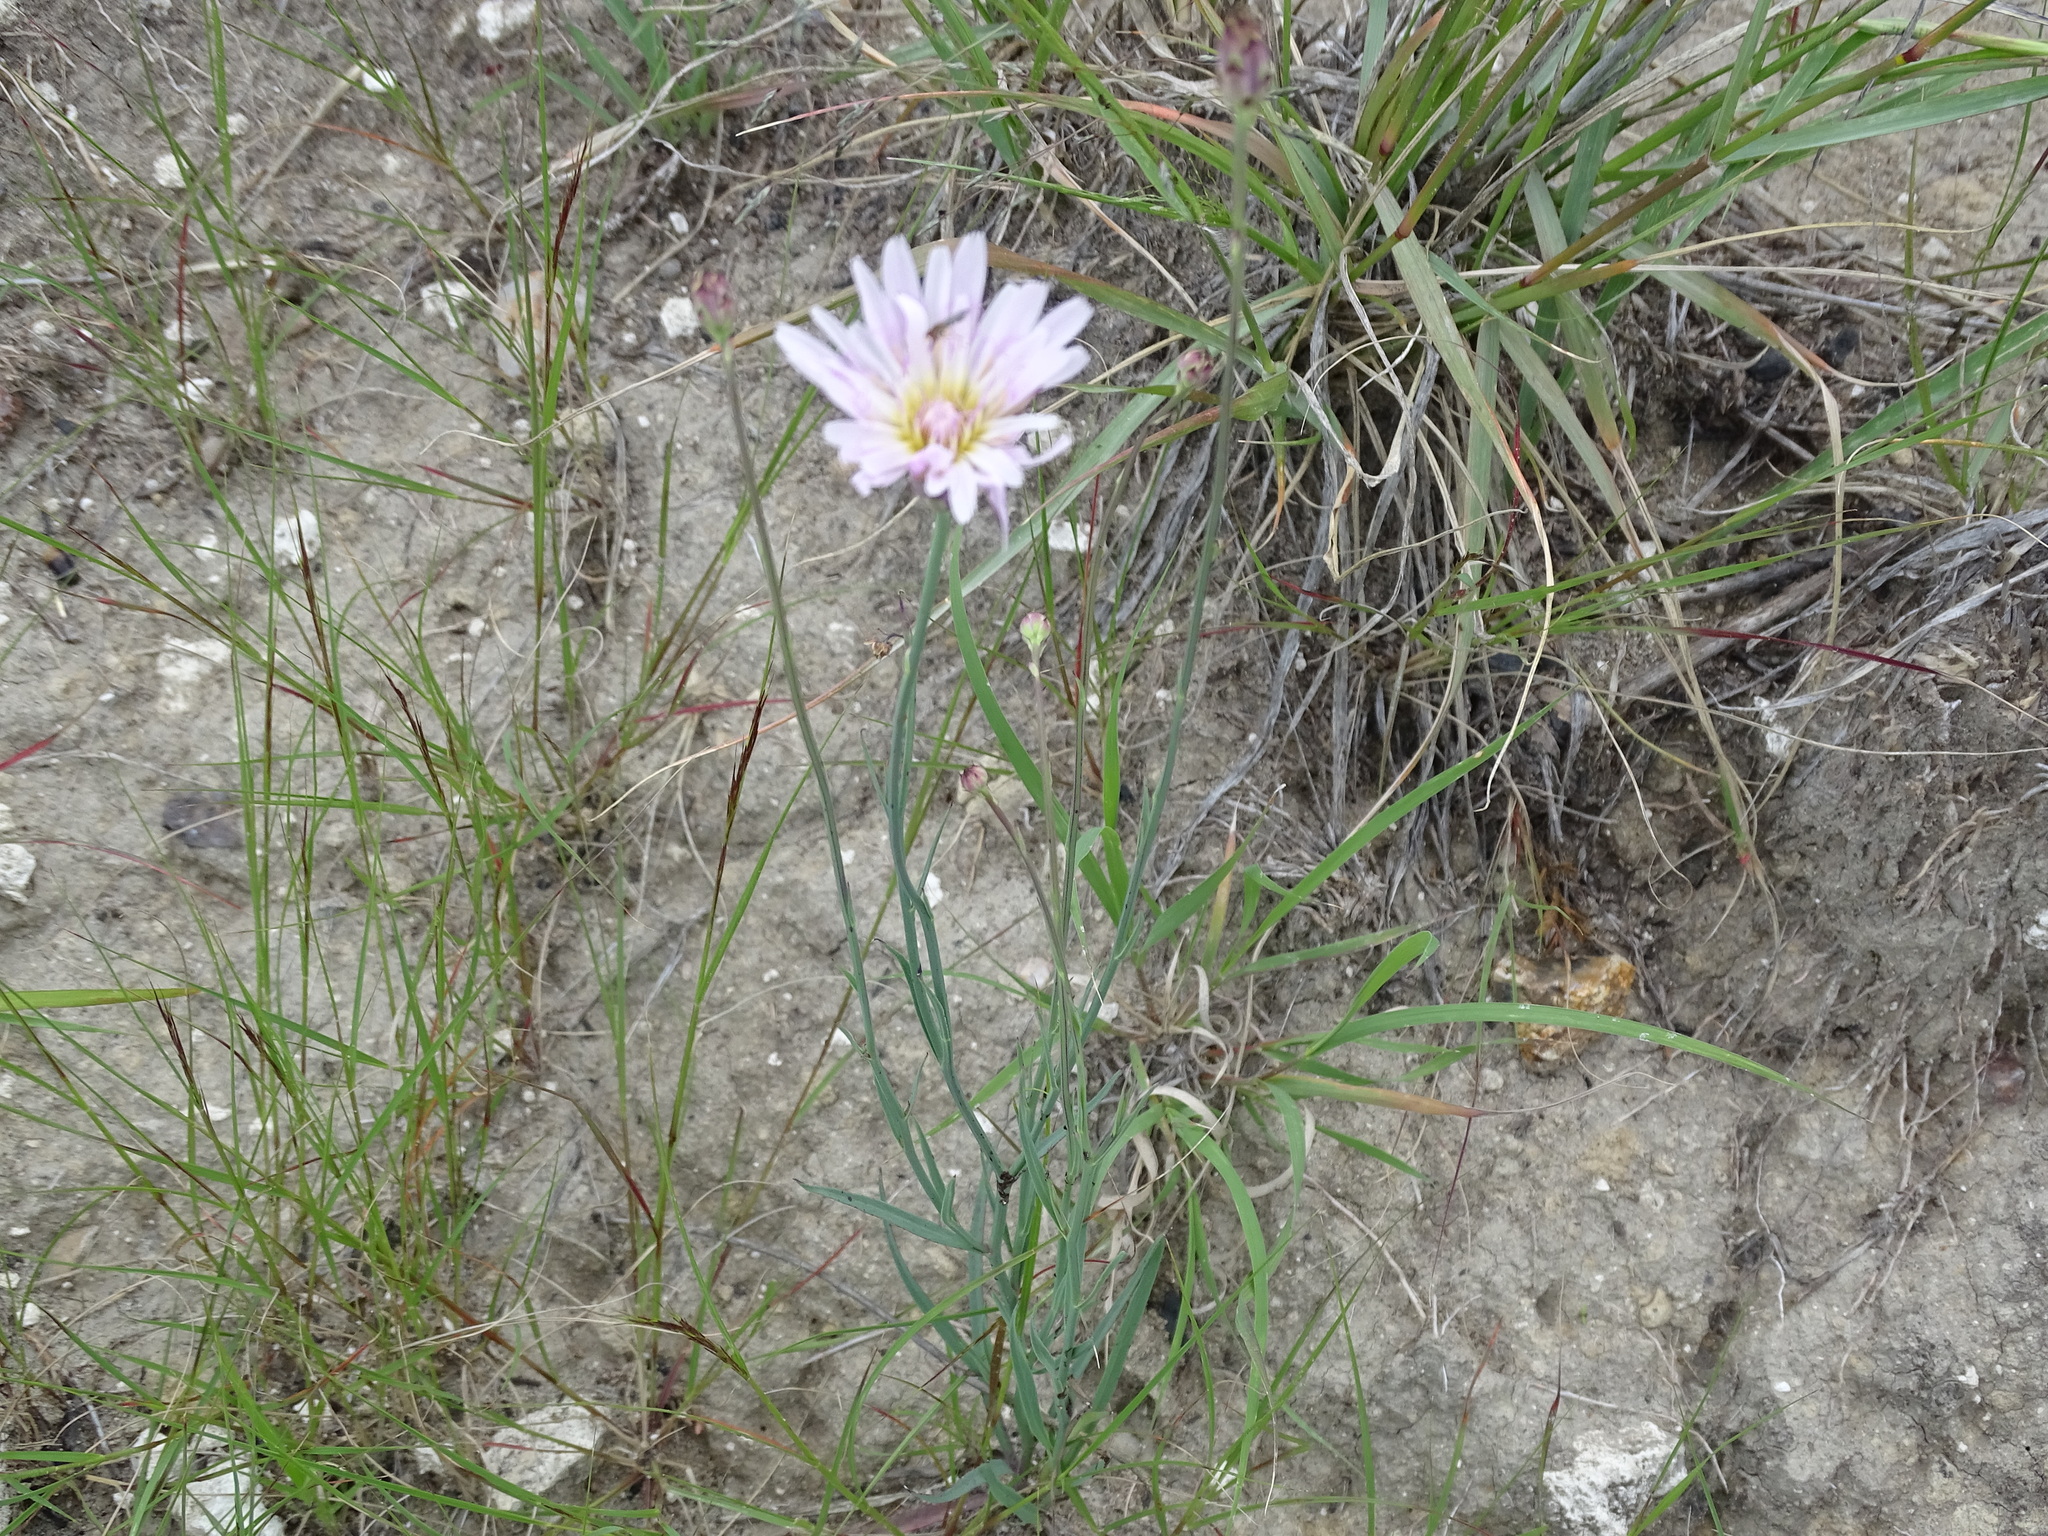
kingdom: Plantae
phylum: Tracheophyta
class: Magnoliopsida
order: Asterales
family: Asteraceae
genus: Pinaropappus
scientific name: Pinaropappus roseus
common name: Rock-lettuce
